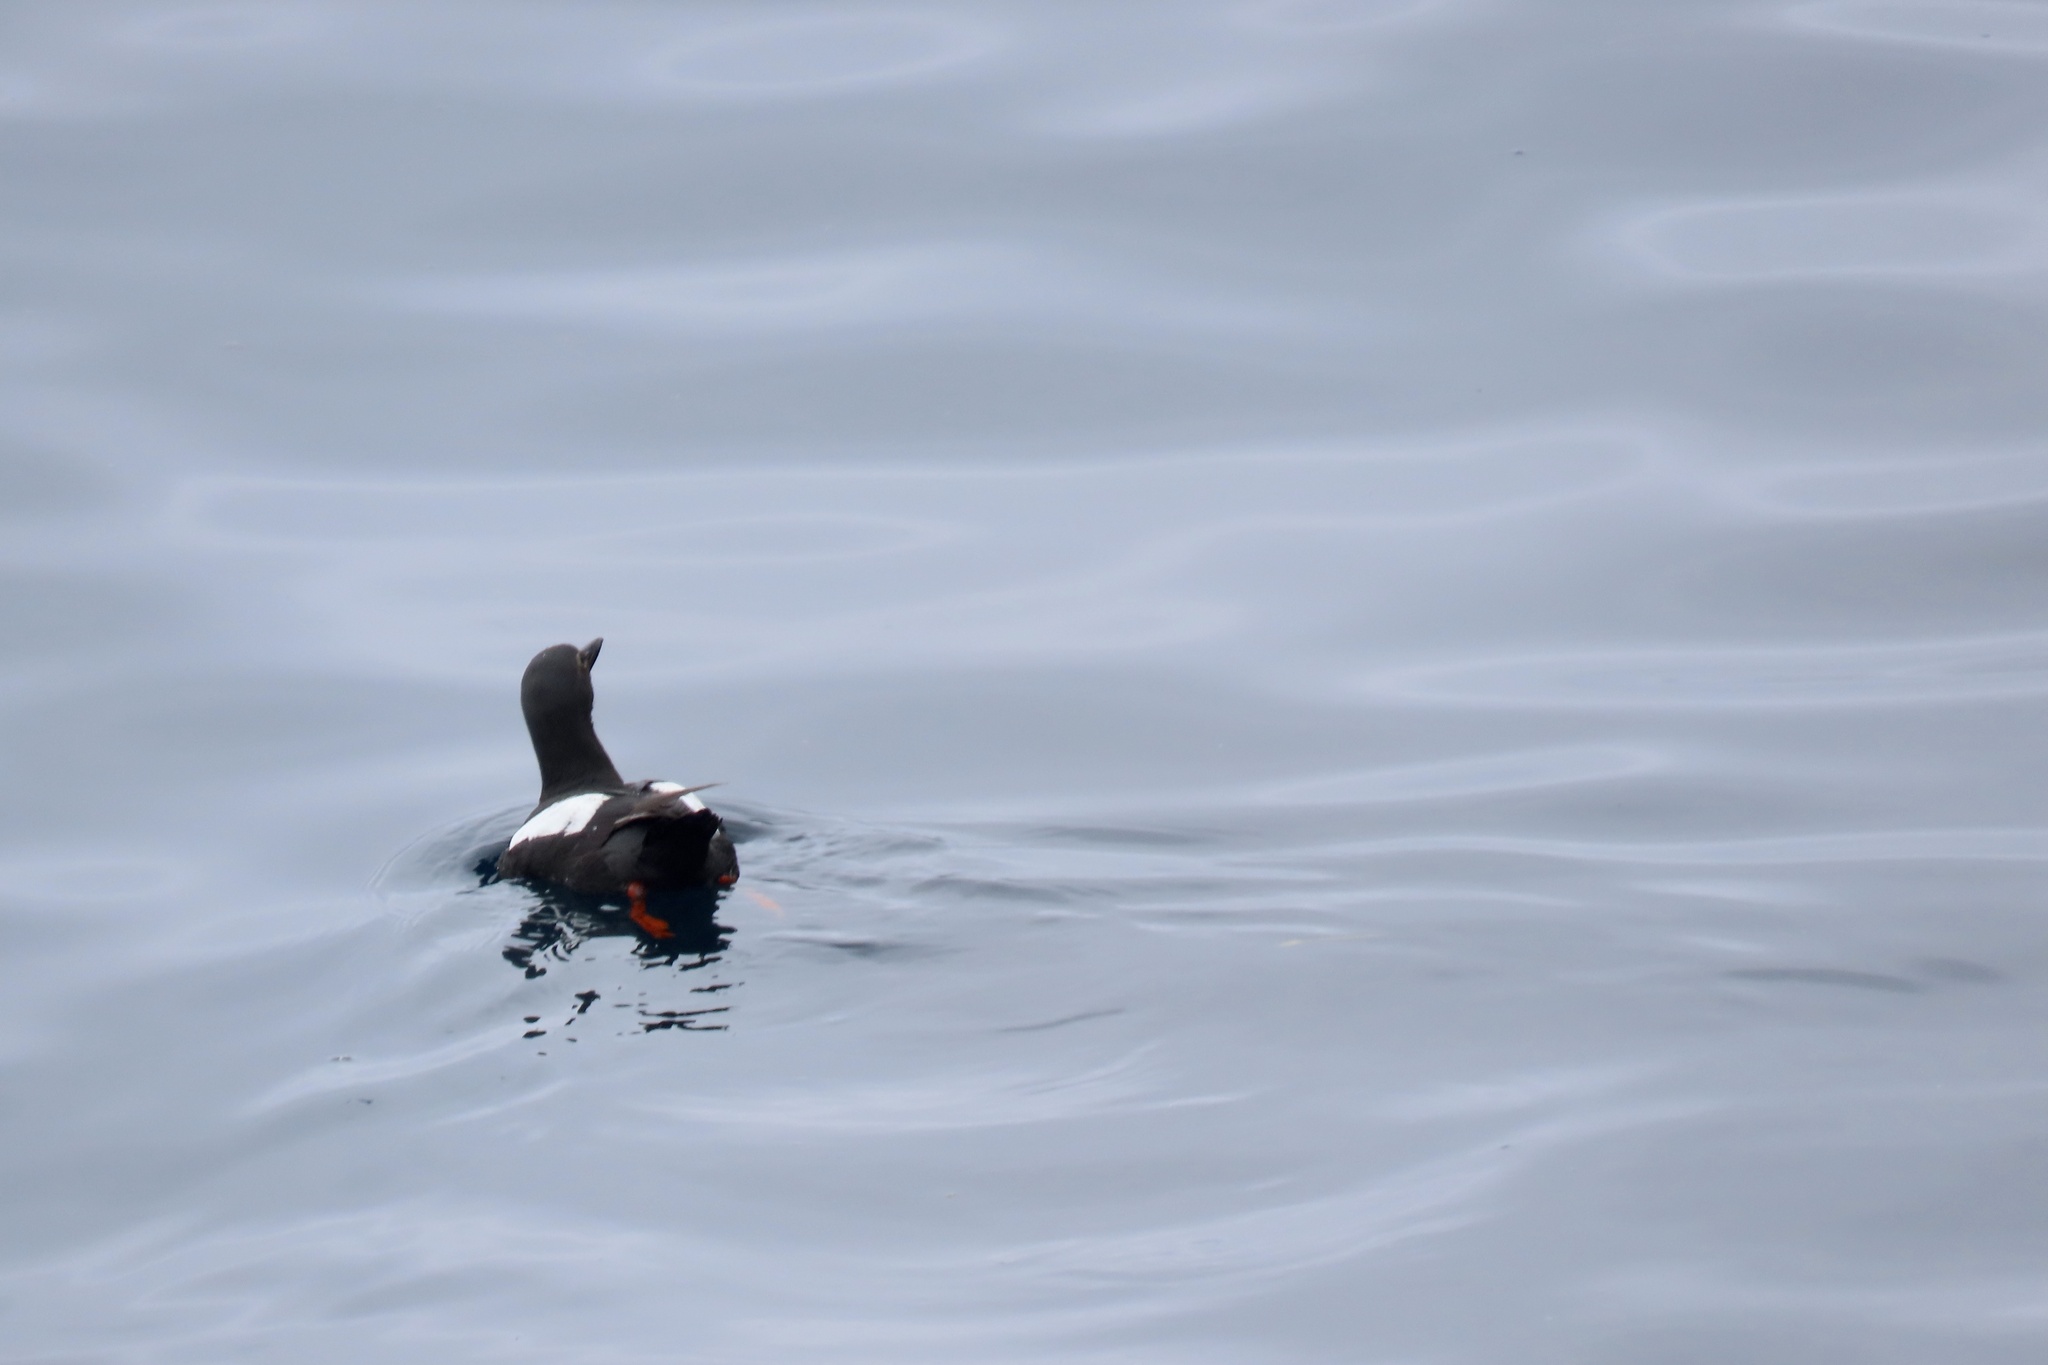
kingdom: Animalia
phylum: Chordata
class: Aves
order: Charadriiformes
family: Alcidae
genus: Cepphus
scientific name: Cepphus columba
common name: Pigeon guillemot
